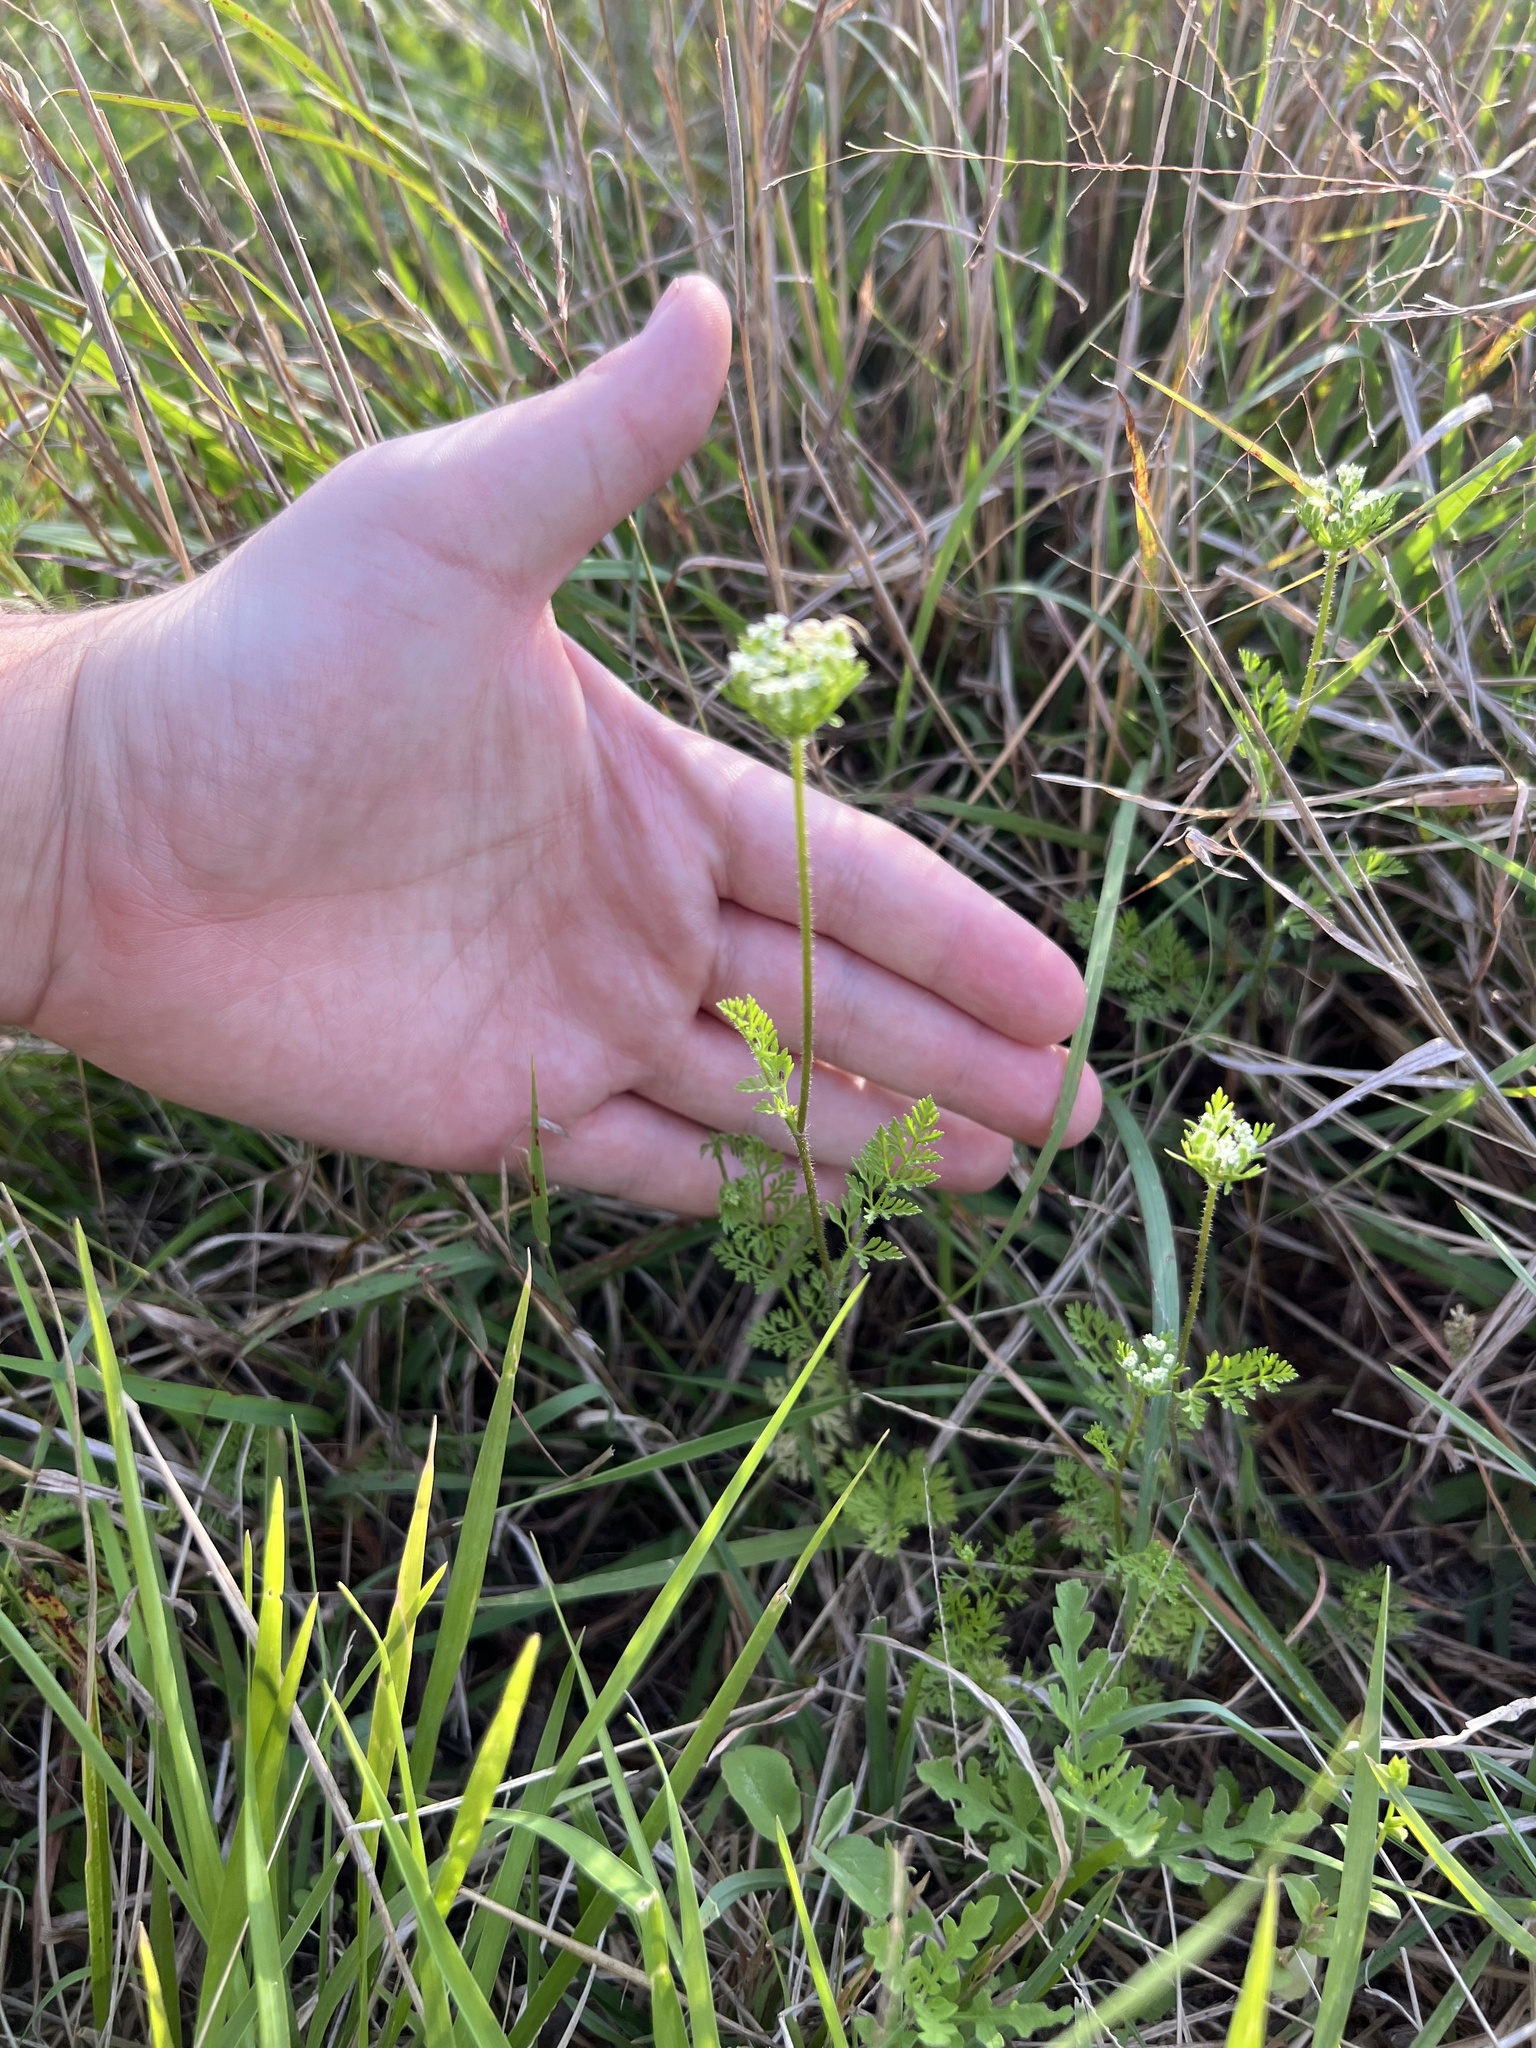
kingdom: Plantae
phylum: Tracheophyta
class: Magnoliopsida
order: Apiales
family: Apiaceae
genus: Daucus
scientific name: Daucus pusillus
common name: Southwest wild carrot
